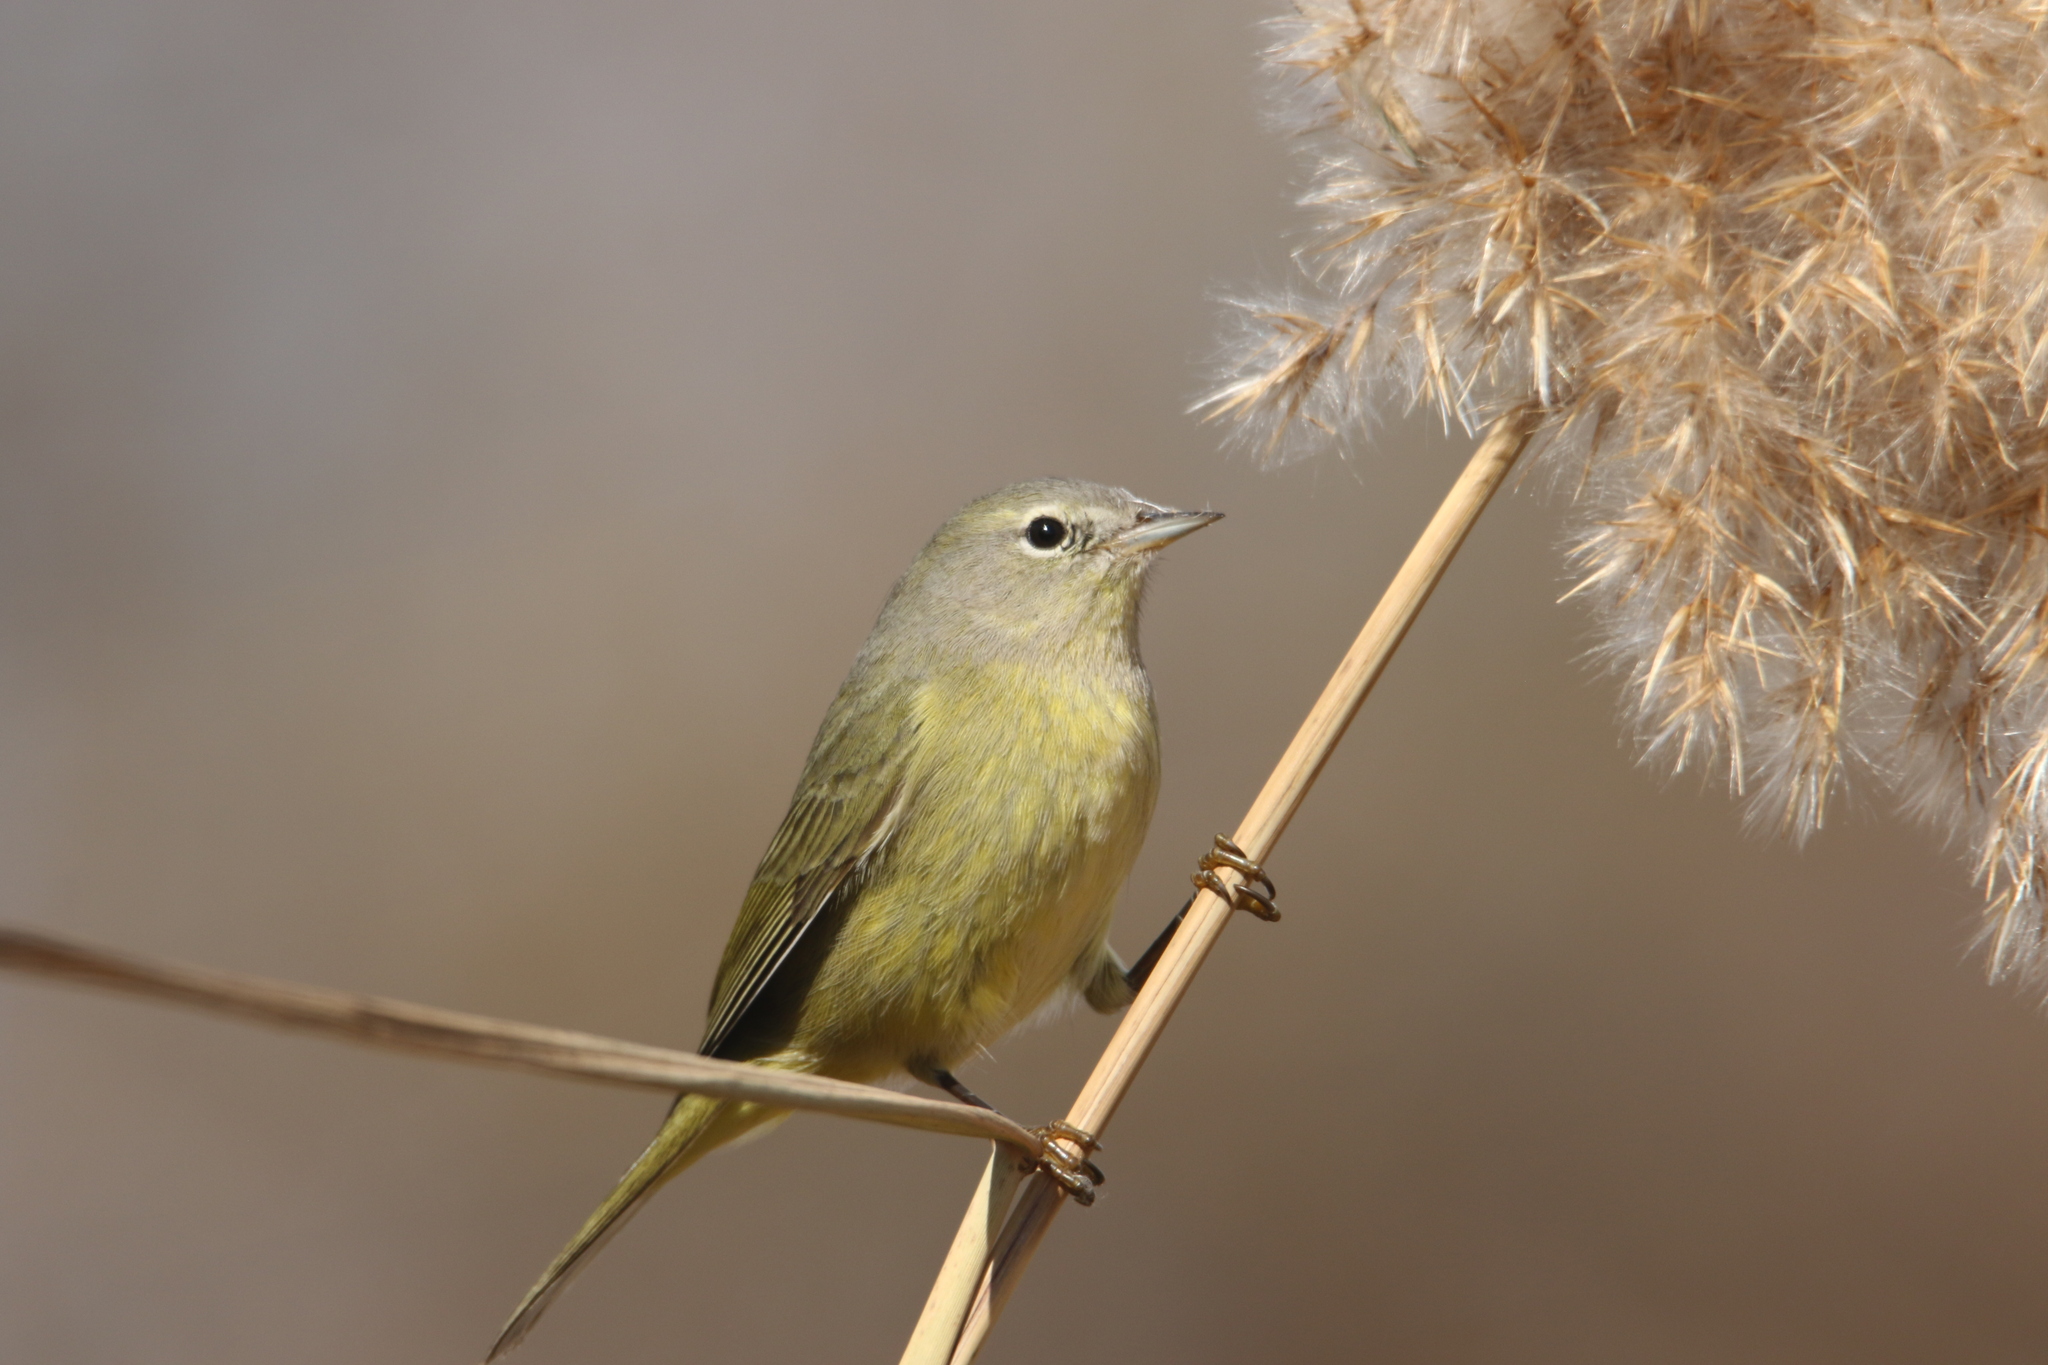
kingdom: Animalia
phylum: Chordata
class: Aves
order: Passeriformes
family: Parulidae
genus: Leiothlypis
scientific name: Leiothlypis celata
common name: Orange-crowned warbler
